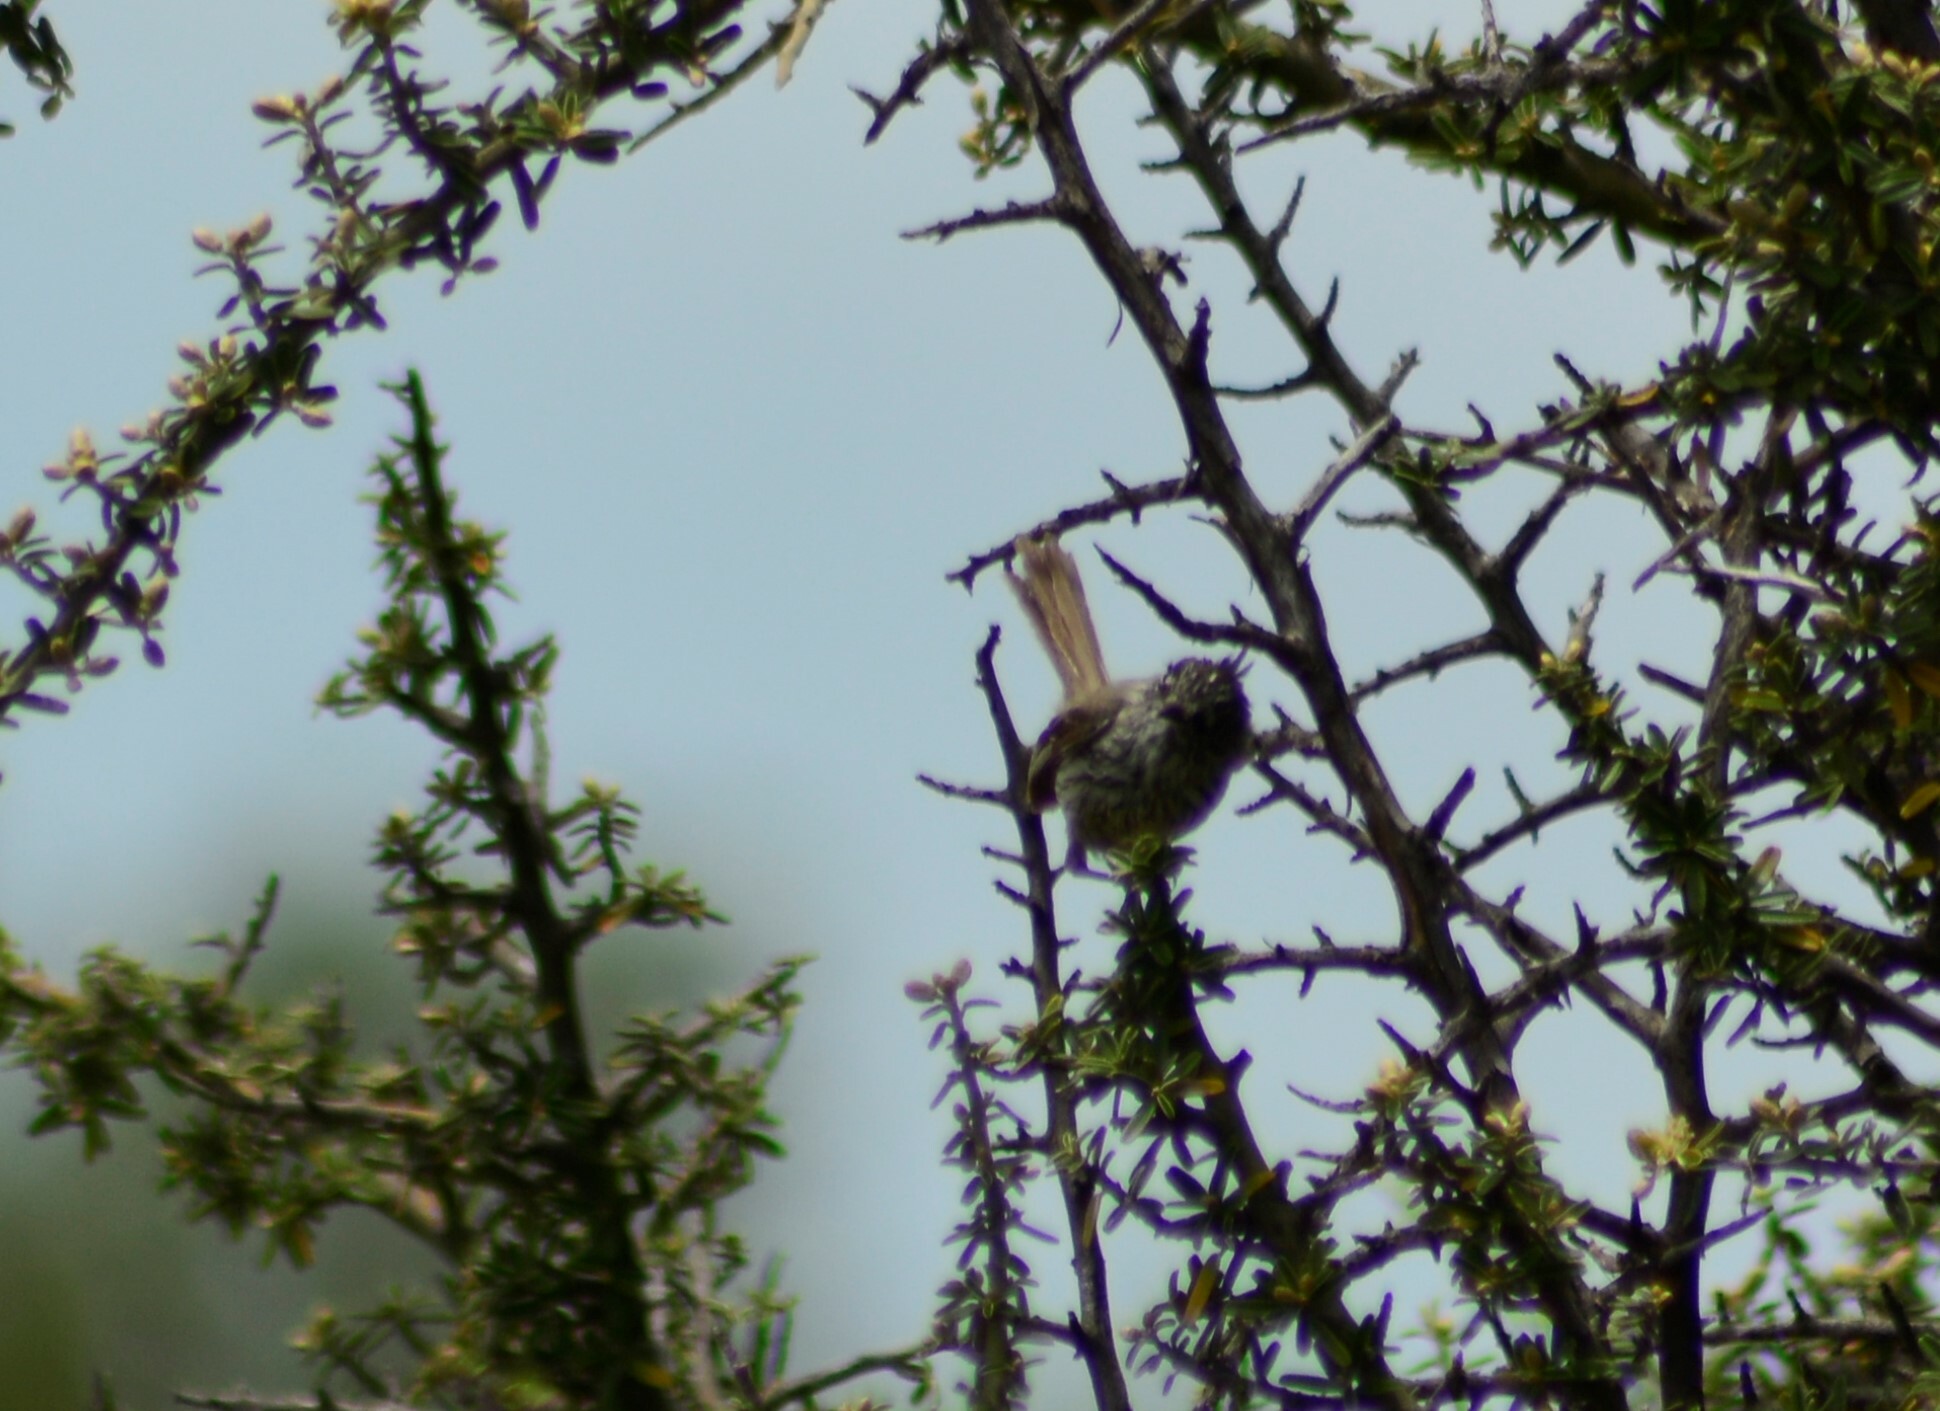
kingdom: Animalia
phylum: Chordata
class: Aves
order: Passeriformes
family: Tyrannidae
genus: Anairetes
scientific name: Anairetes parulus
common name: Tufted tit-tyrant
